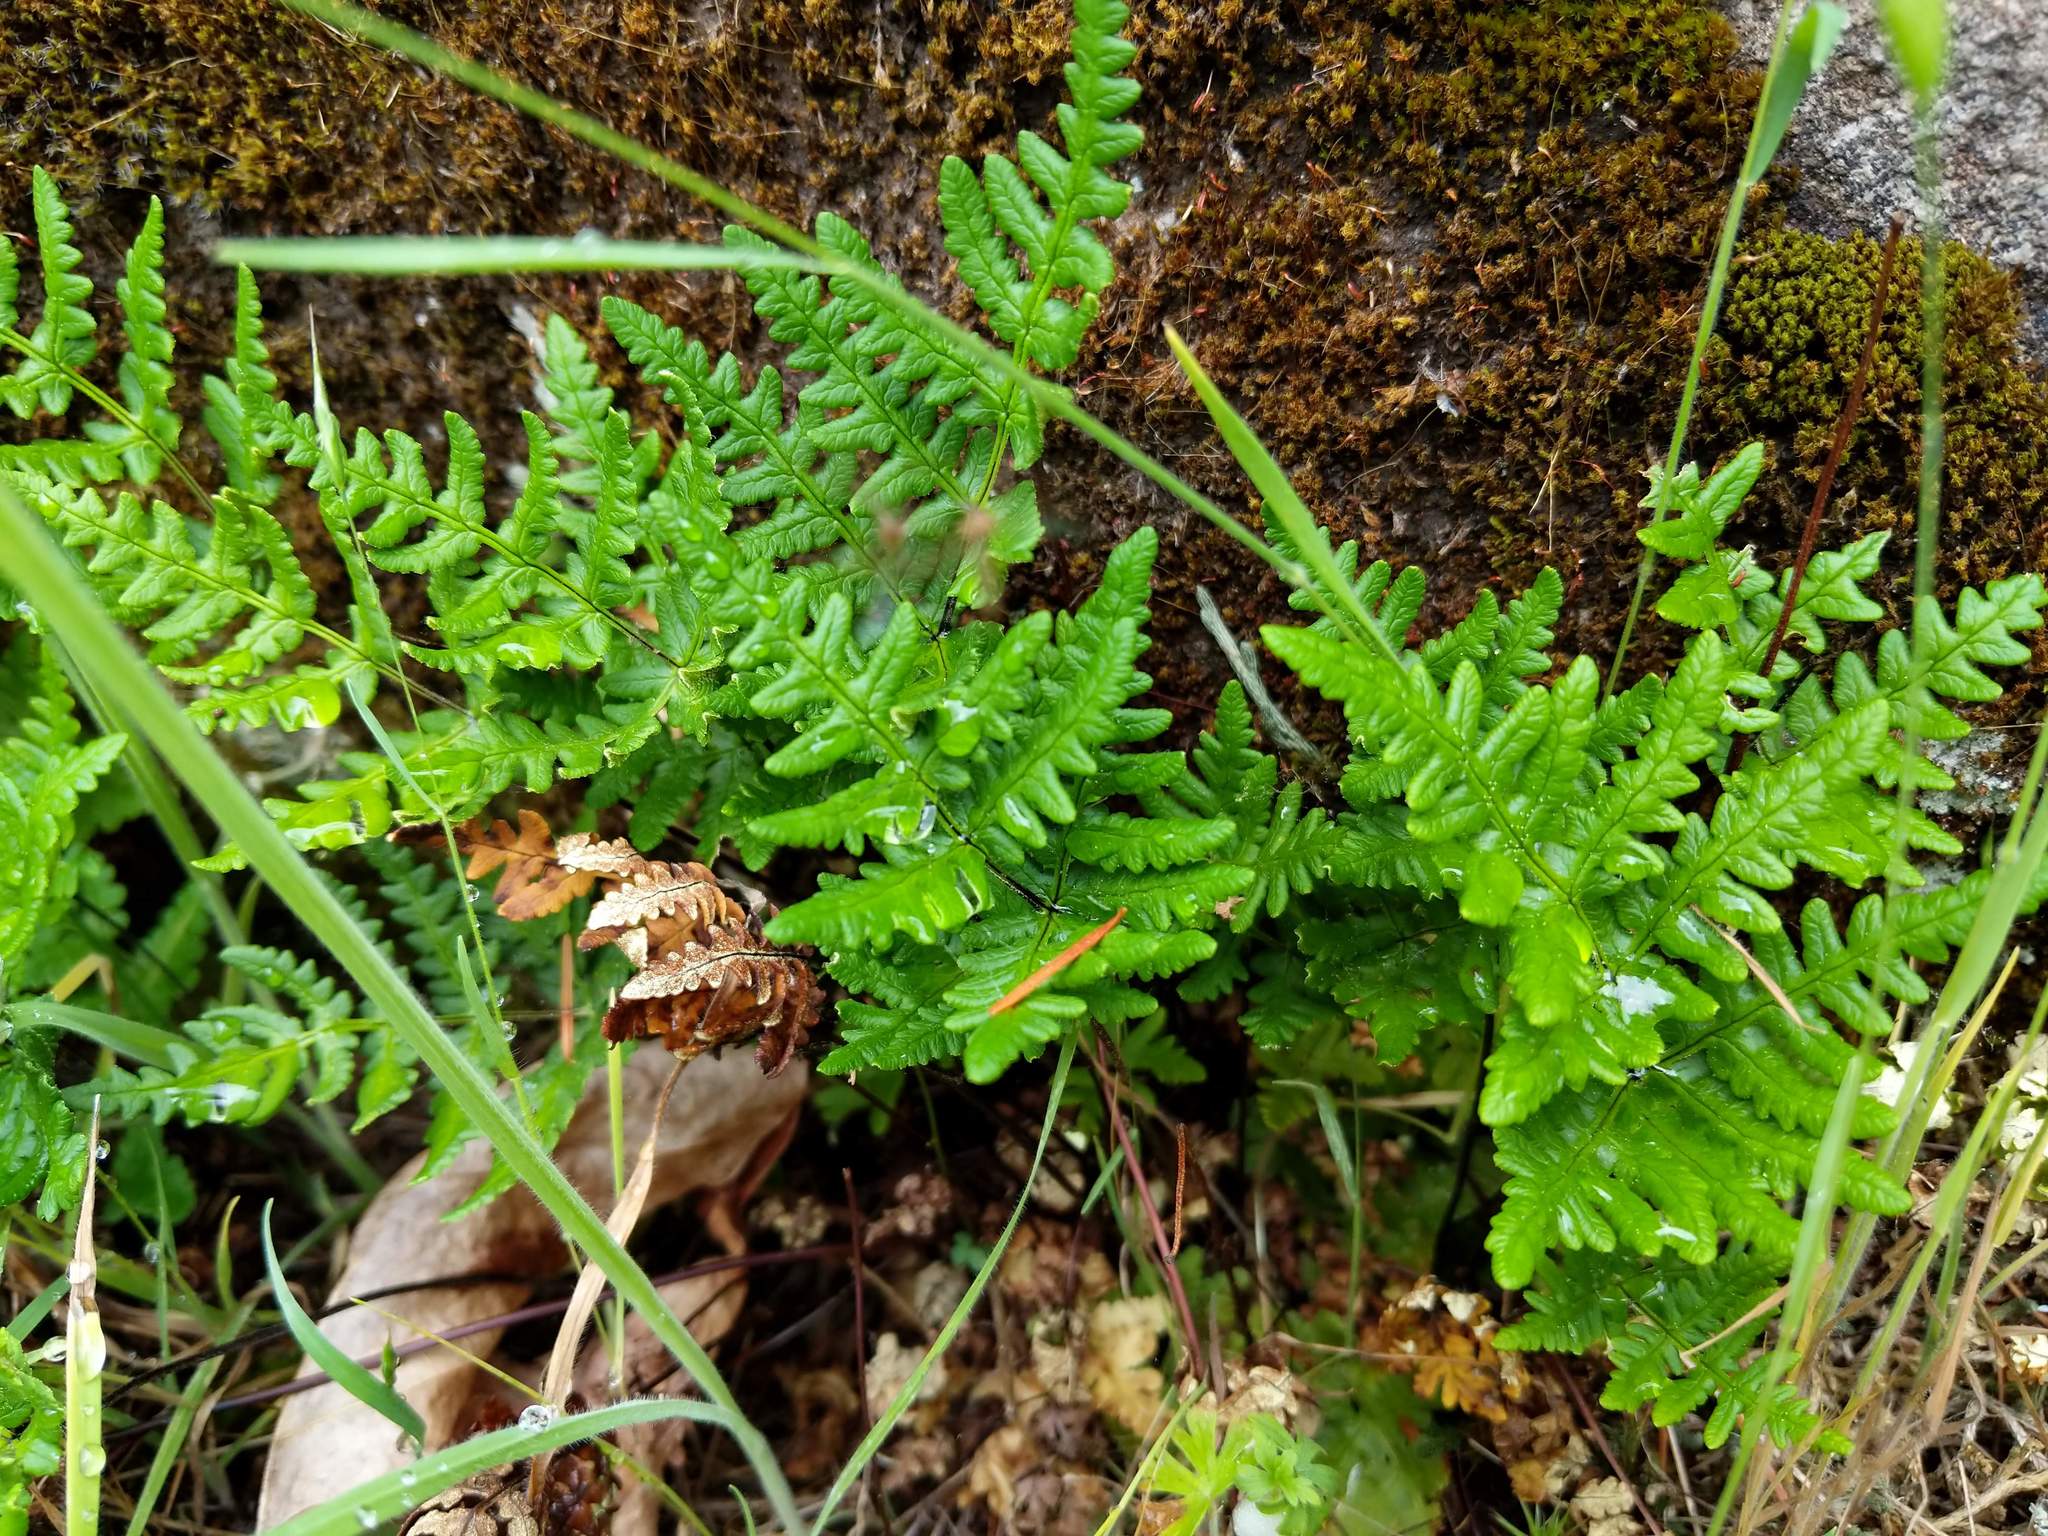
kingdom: Plantae
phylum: Tracheophyta
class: Polypodiopsida
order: Polypodiales
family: Pteridaceae
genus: Pentagramma
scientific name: Pentagramma triangularis
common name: Gold fern
